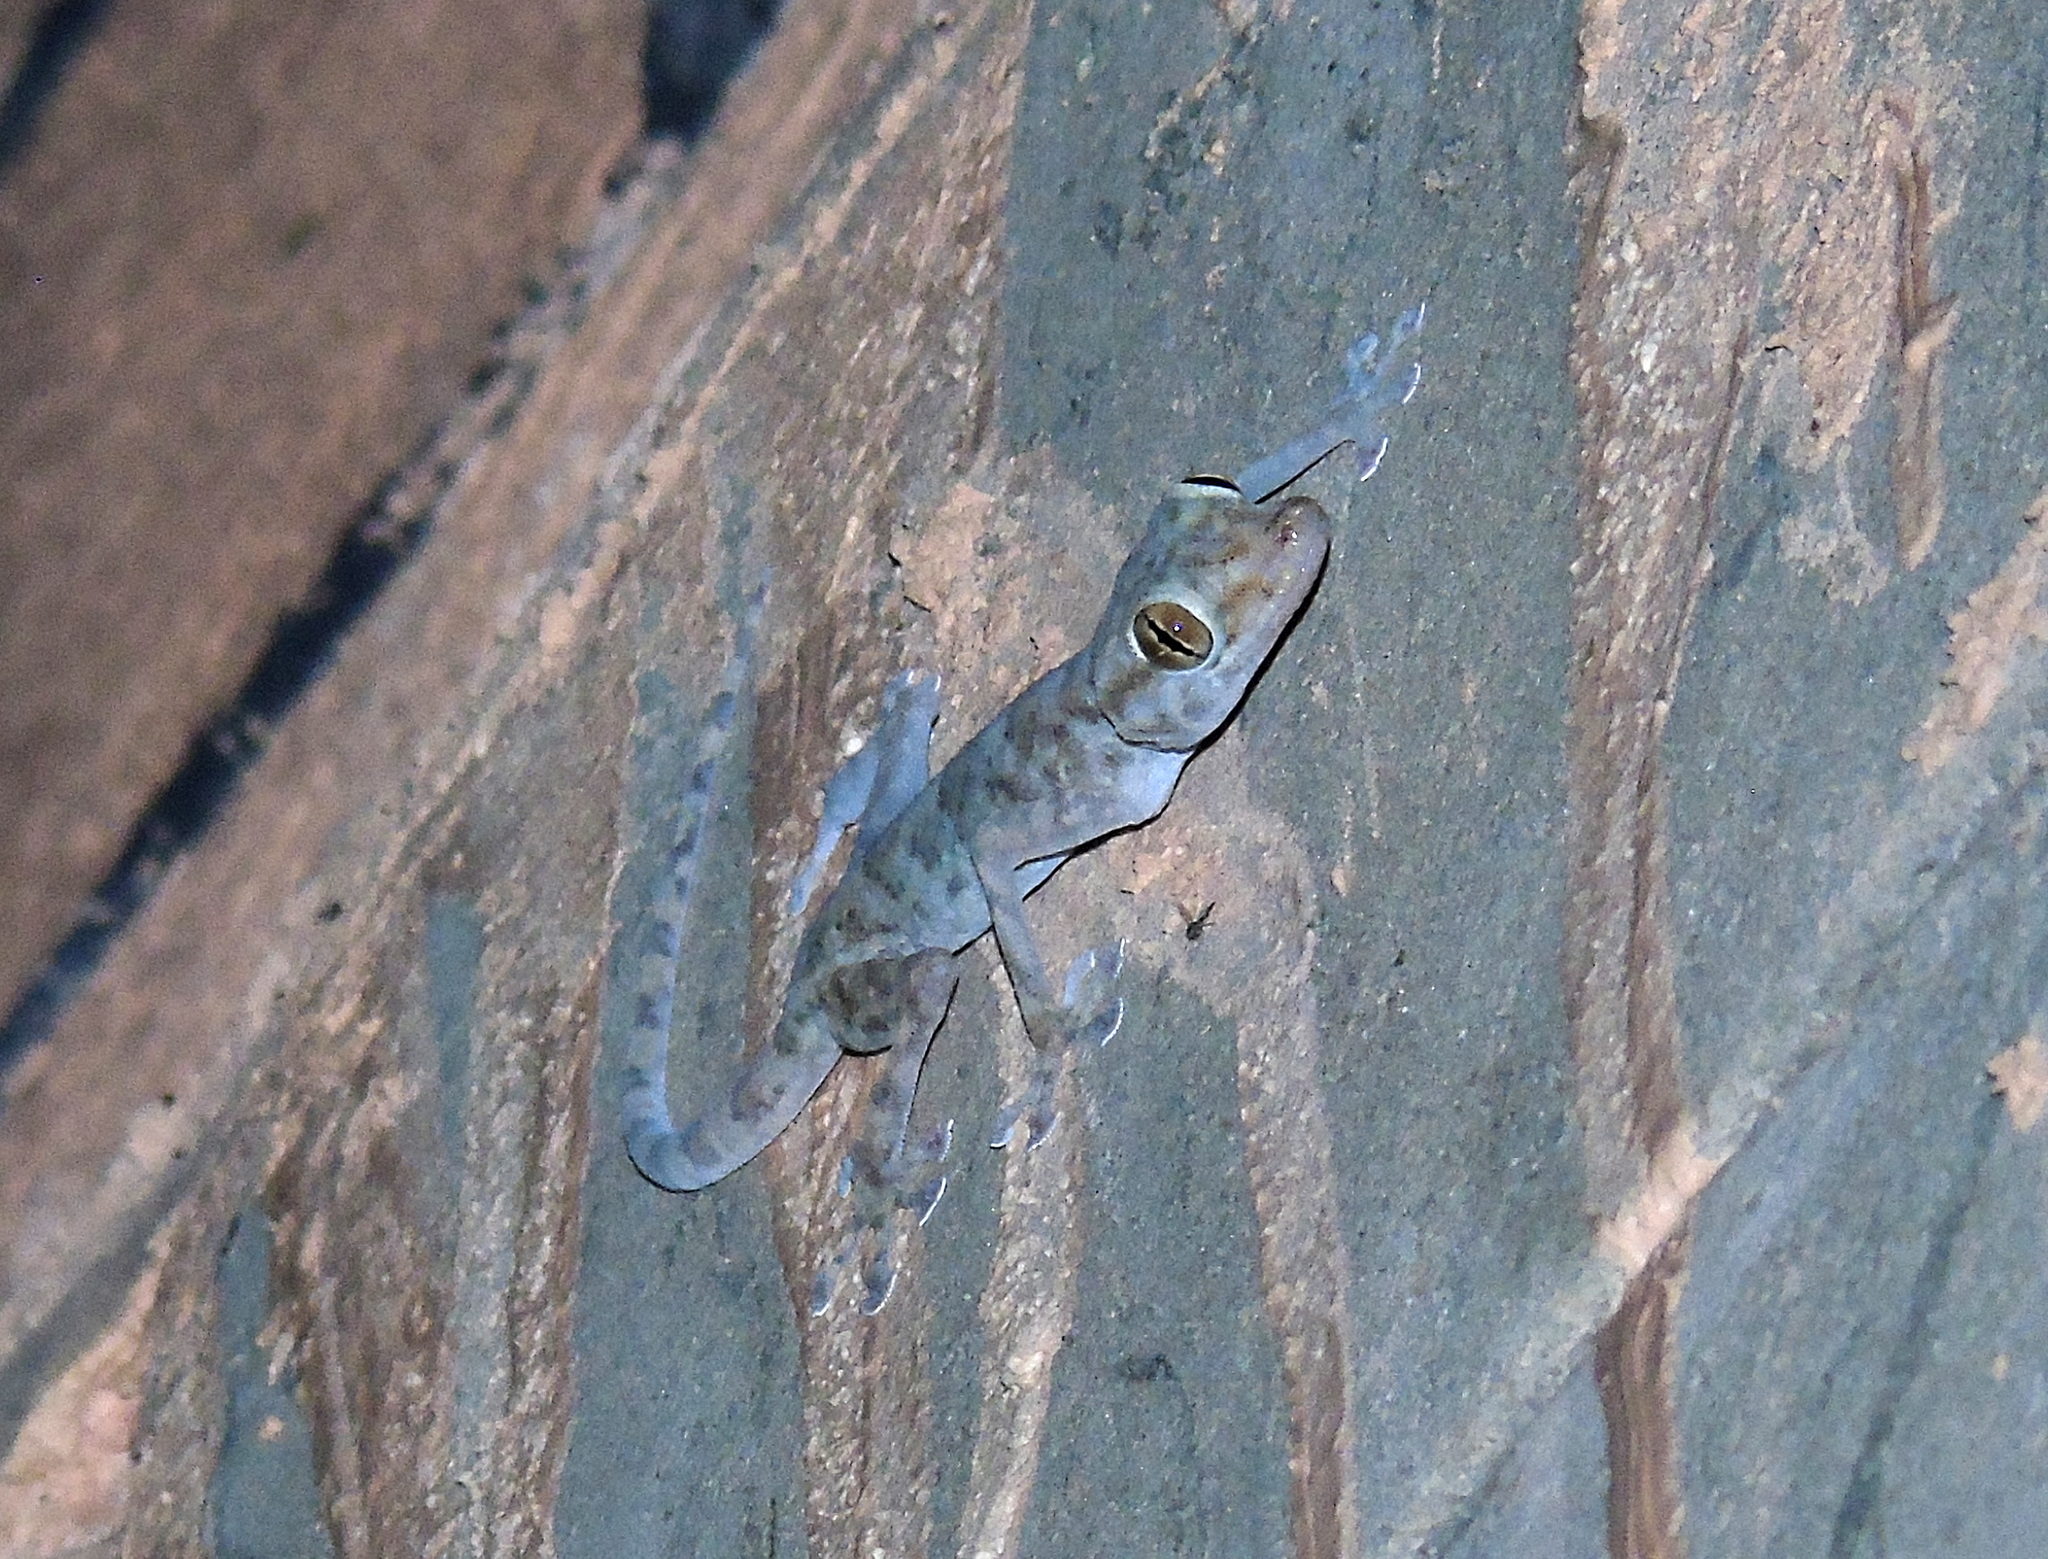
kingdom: Animalia
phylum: Chordata
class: Squamata
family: Phyllodactylidae
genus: Ptyodactylus
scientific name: Ptyodactylus hasselquistii
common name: Hasselquist’s fan-footed gecko
